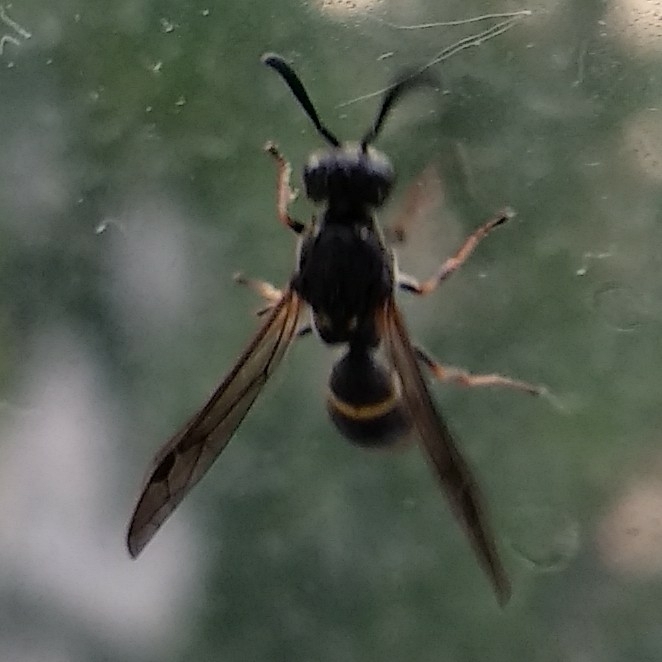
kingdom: Animalia
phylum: Arthropoda
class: Insecta
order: Hymenoptera
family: Eumenidae
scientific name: Eumenidae
